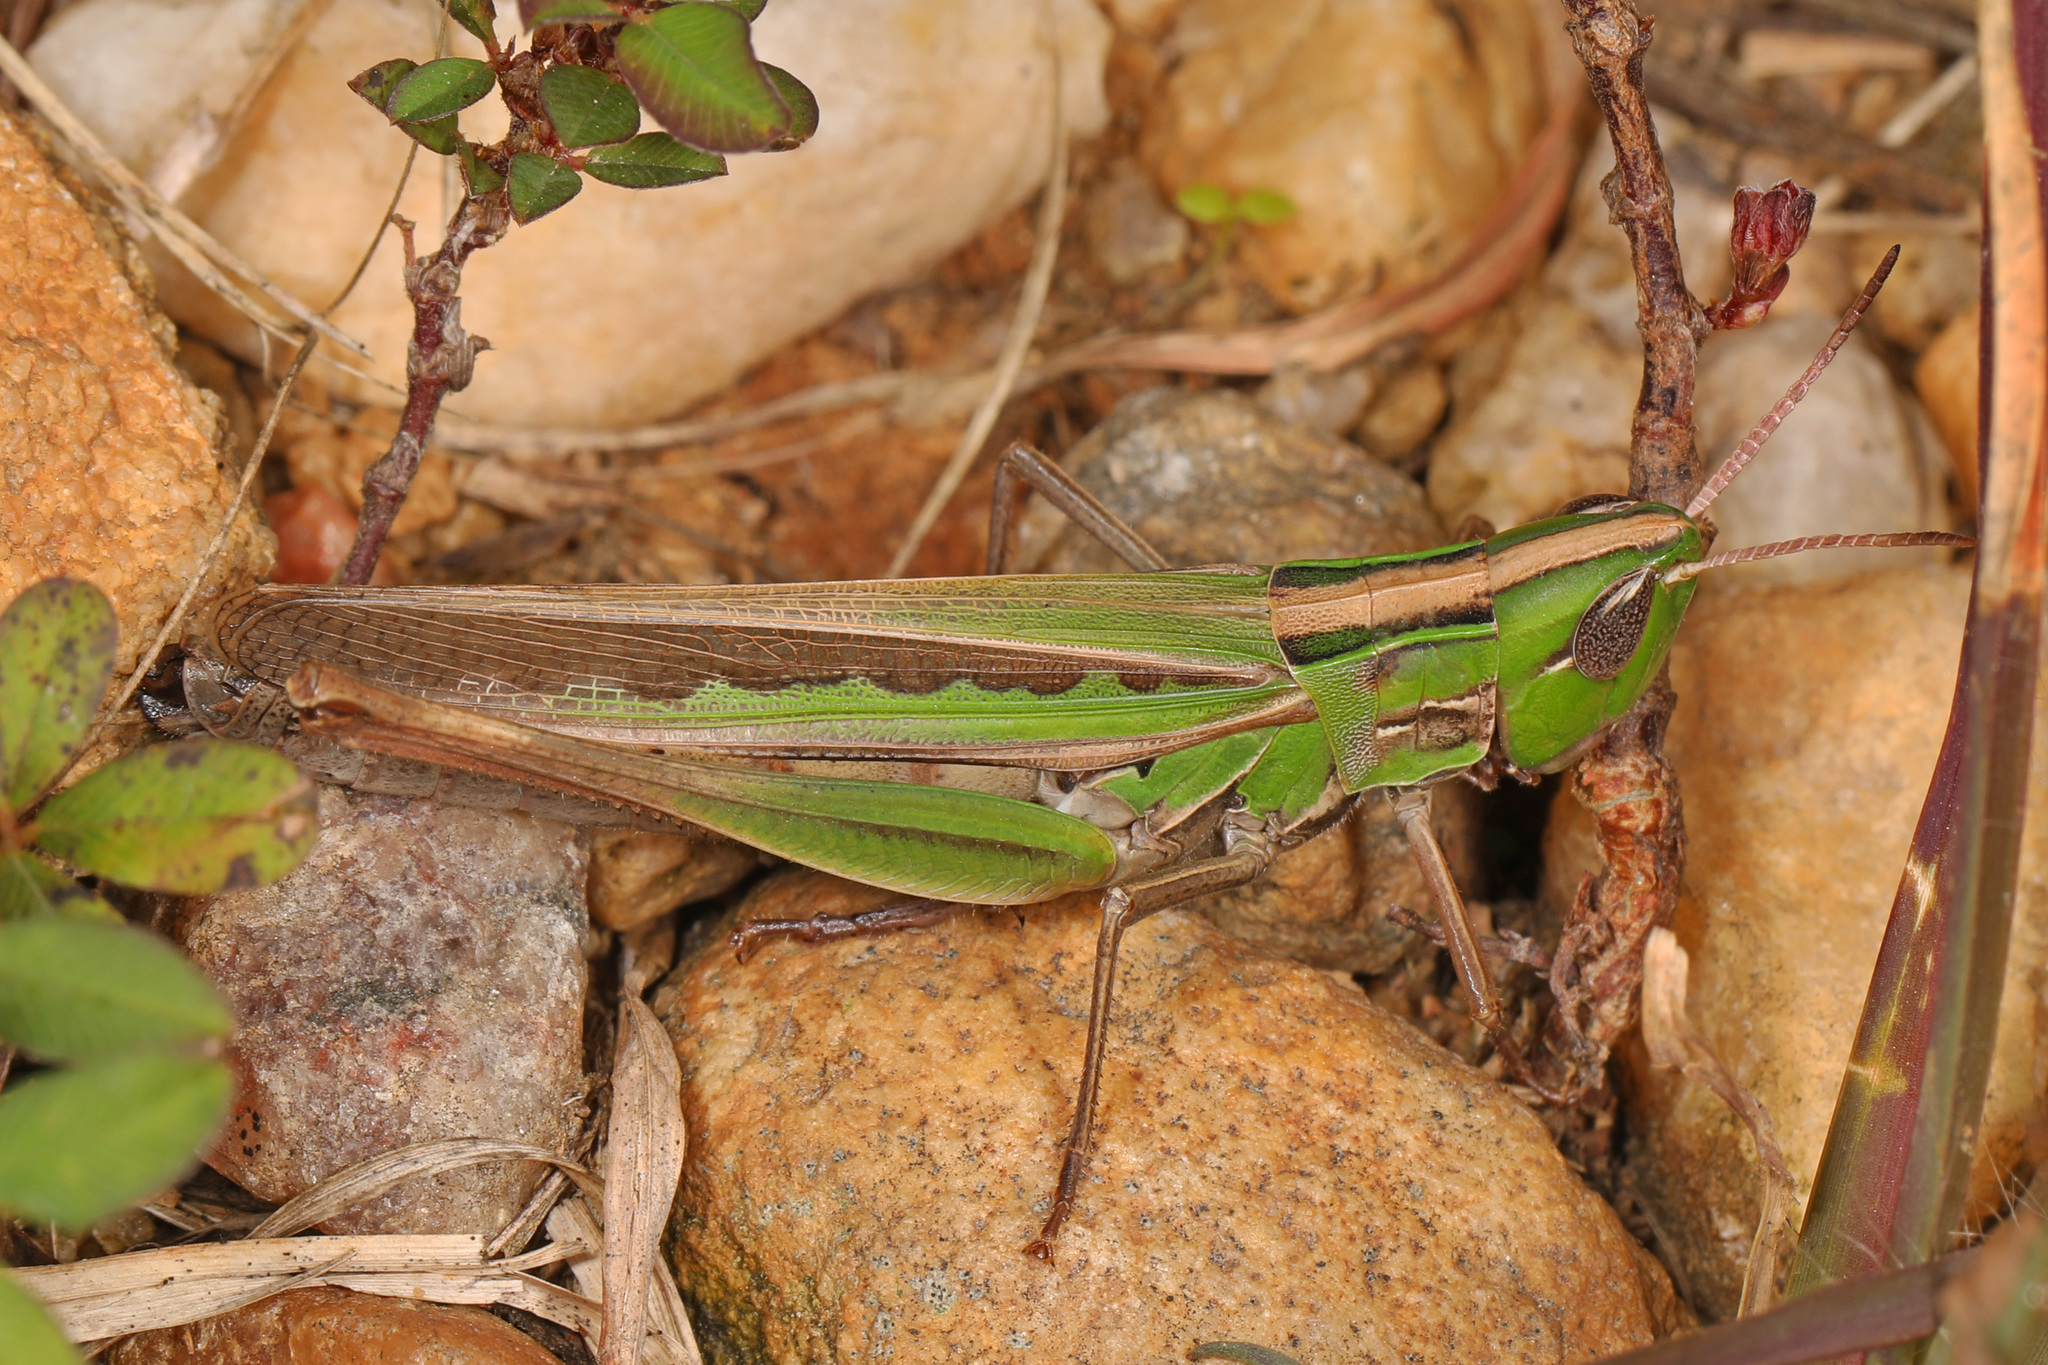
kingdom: Animalia
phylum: Arthropoda
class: Insecta
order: Orthoptera
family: Acrididae
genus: Syrbula
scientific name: Syrbula admirabilis
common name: Handsome grasshopper
